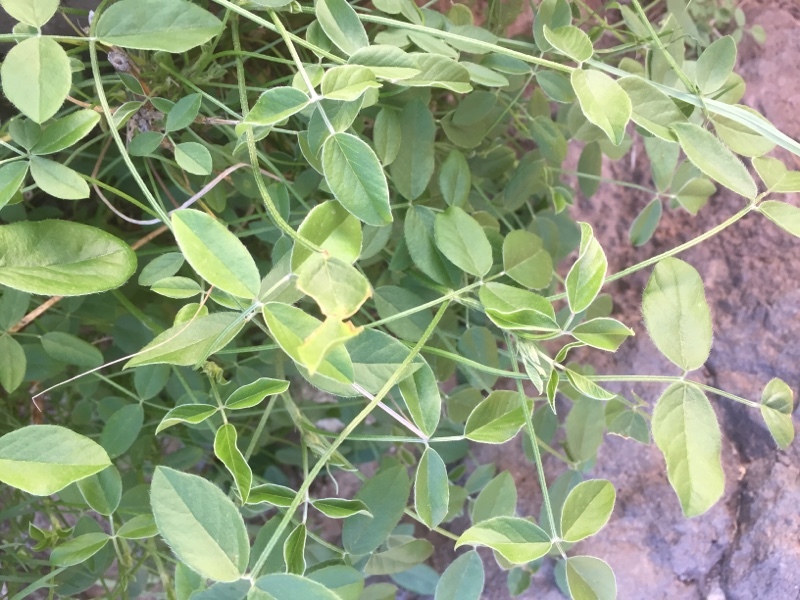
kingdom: Plantae
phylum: Tracheophyta
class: Magnoliopsida
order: Fabales
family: Fabaceae
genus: Bituminaria
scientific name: Bituminaria bituminosa
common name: Arabian pea
